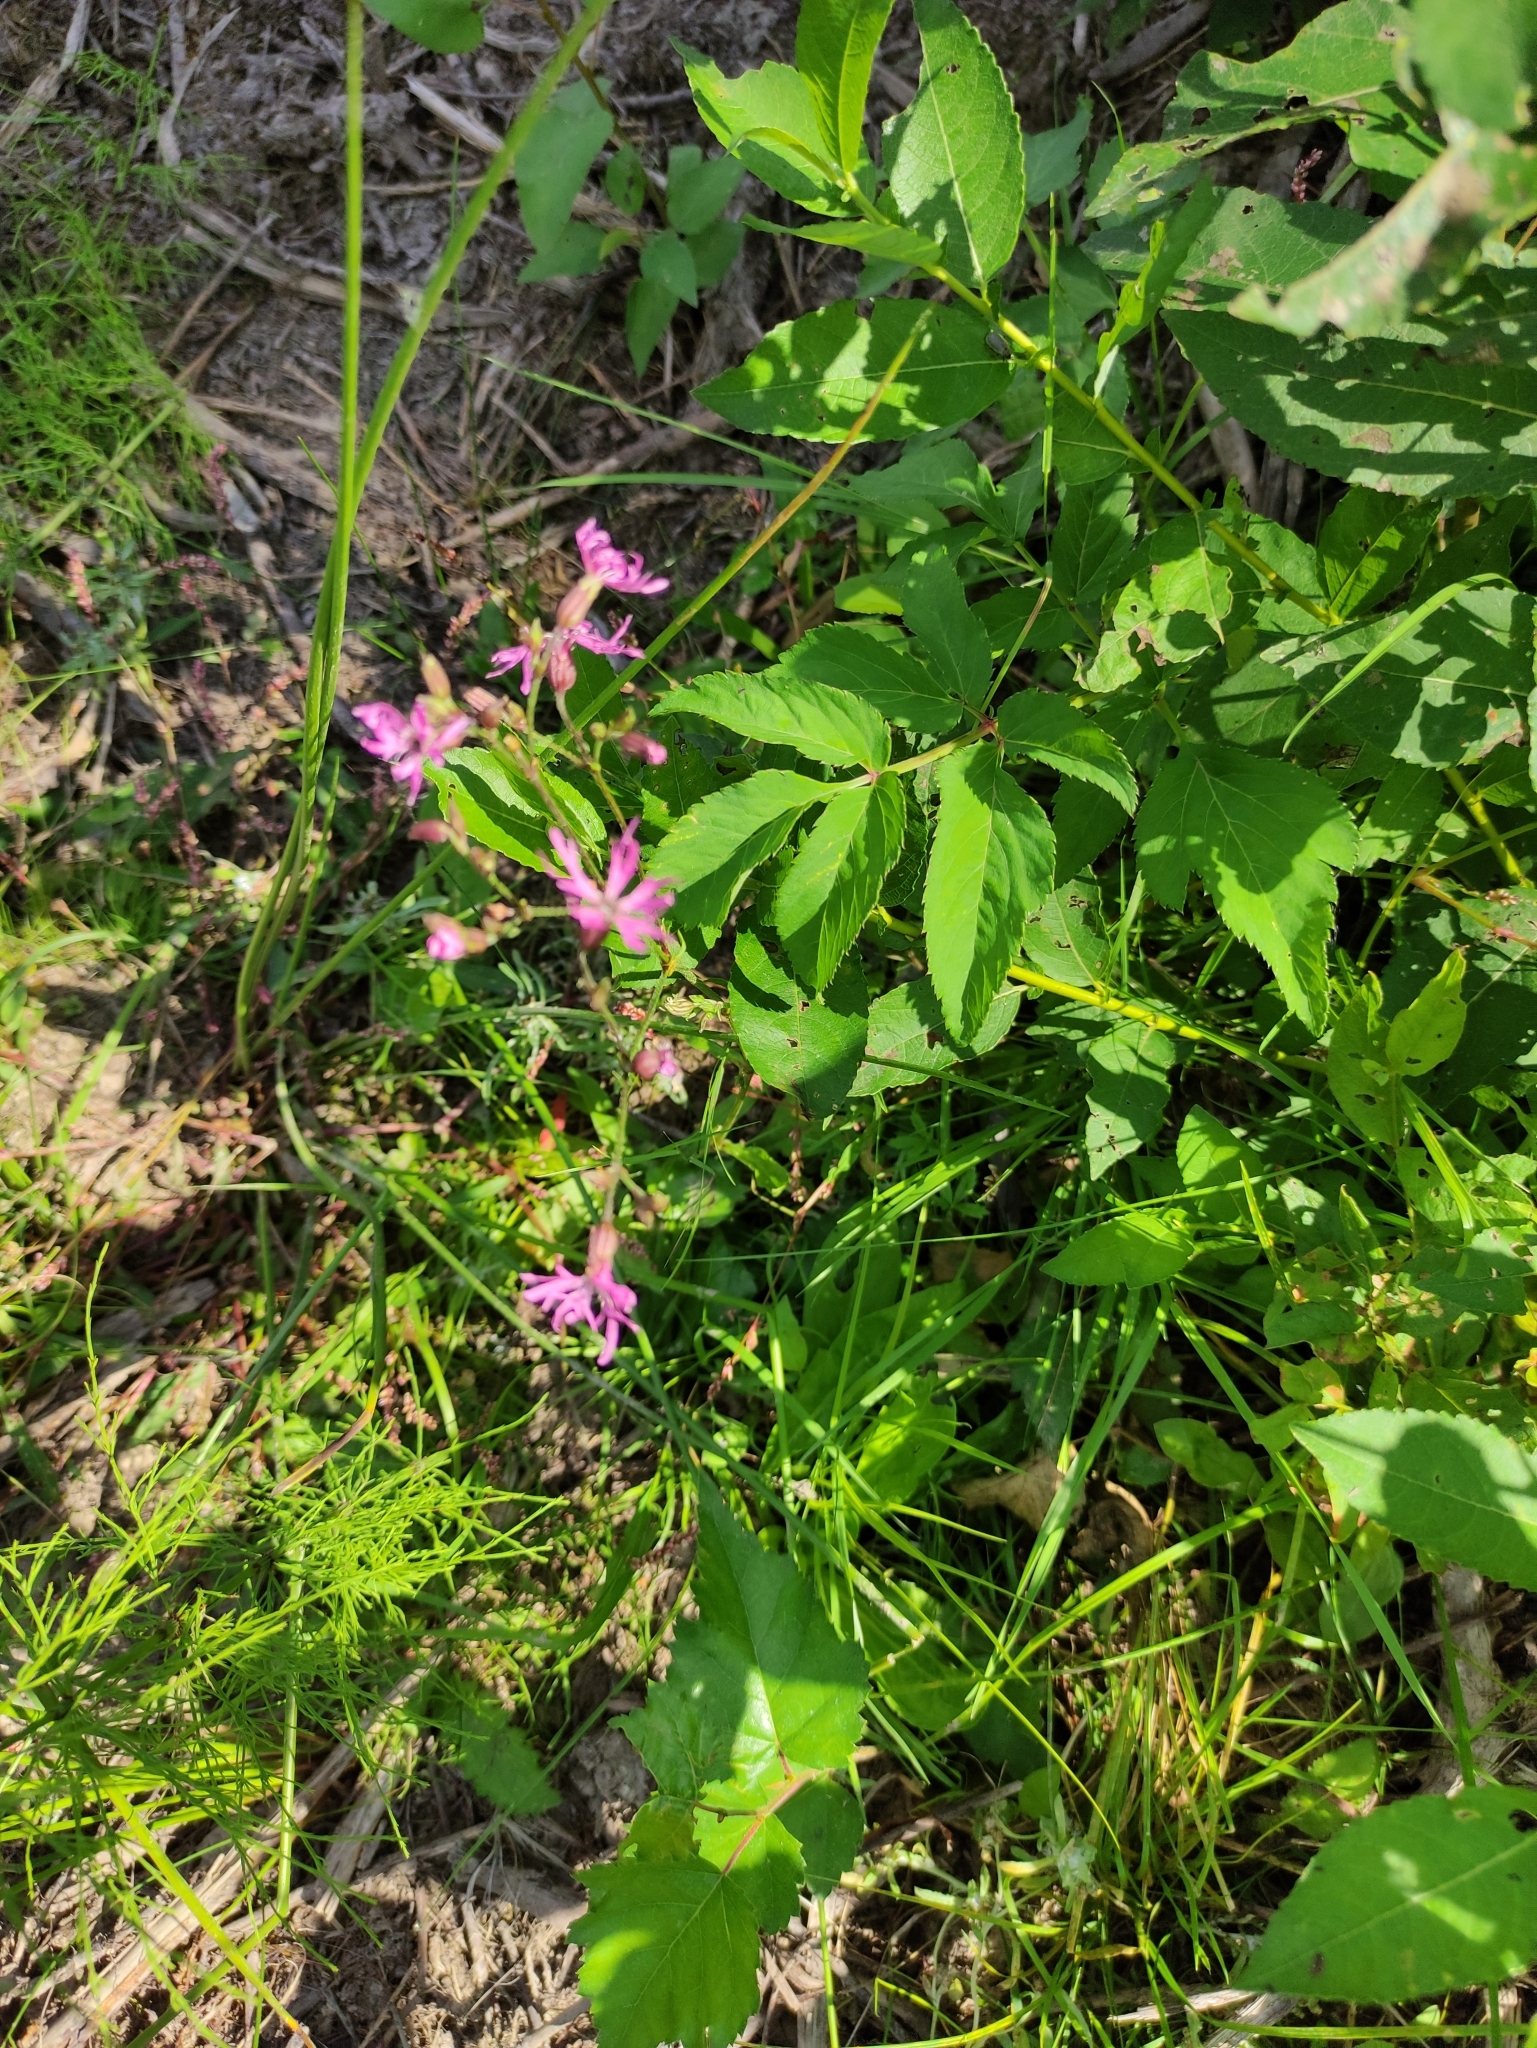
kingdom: Plantae
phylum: Tracheophyta
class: Magnoliopsida
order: Caryophyllales
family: Caryophyllaceae
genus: Silene
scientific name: Silene flos-cuculi
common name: Ragged-robin
